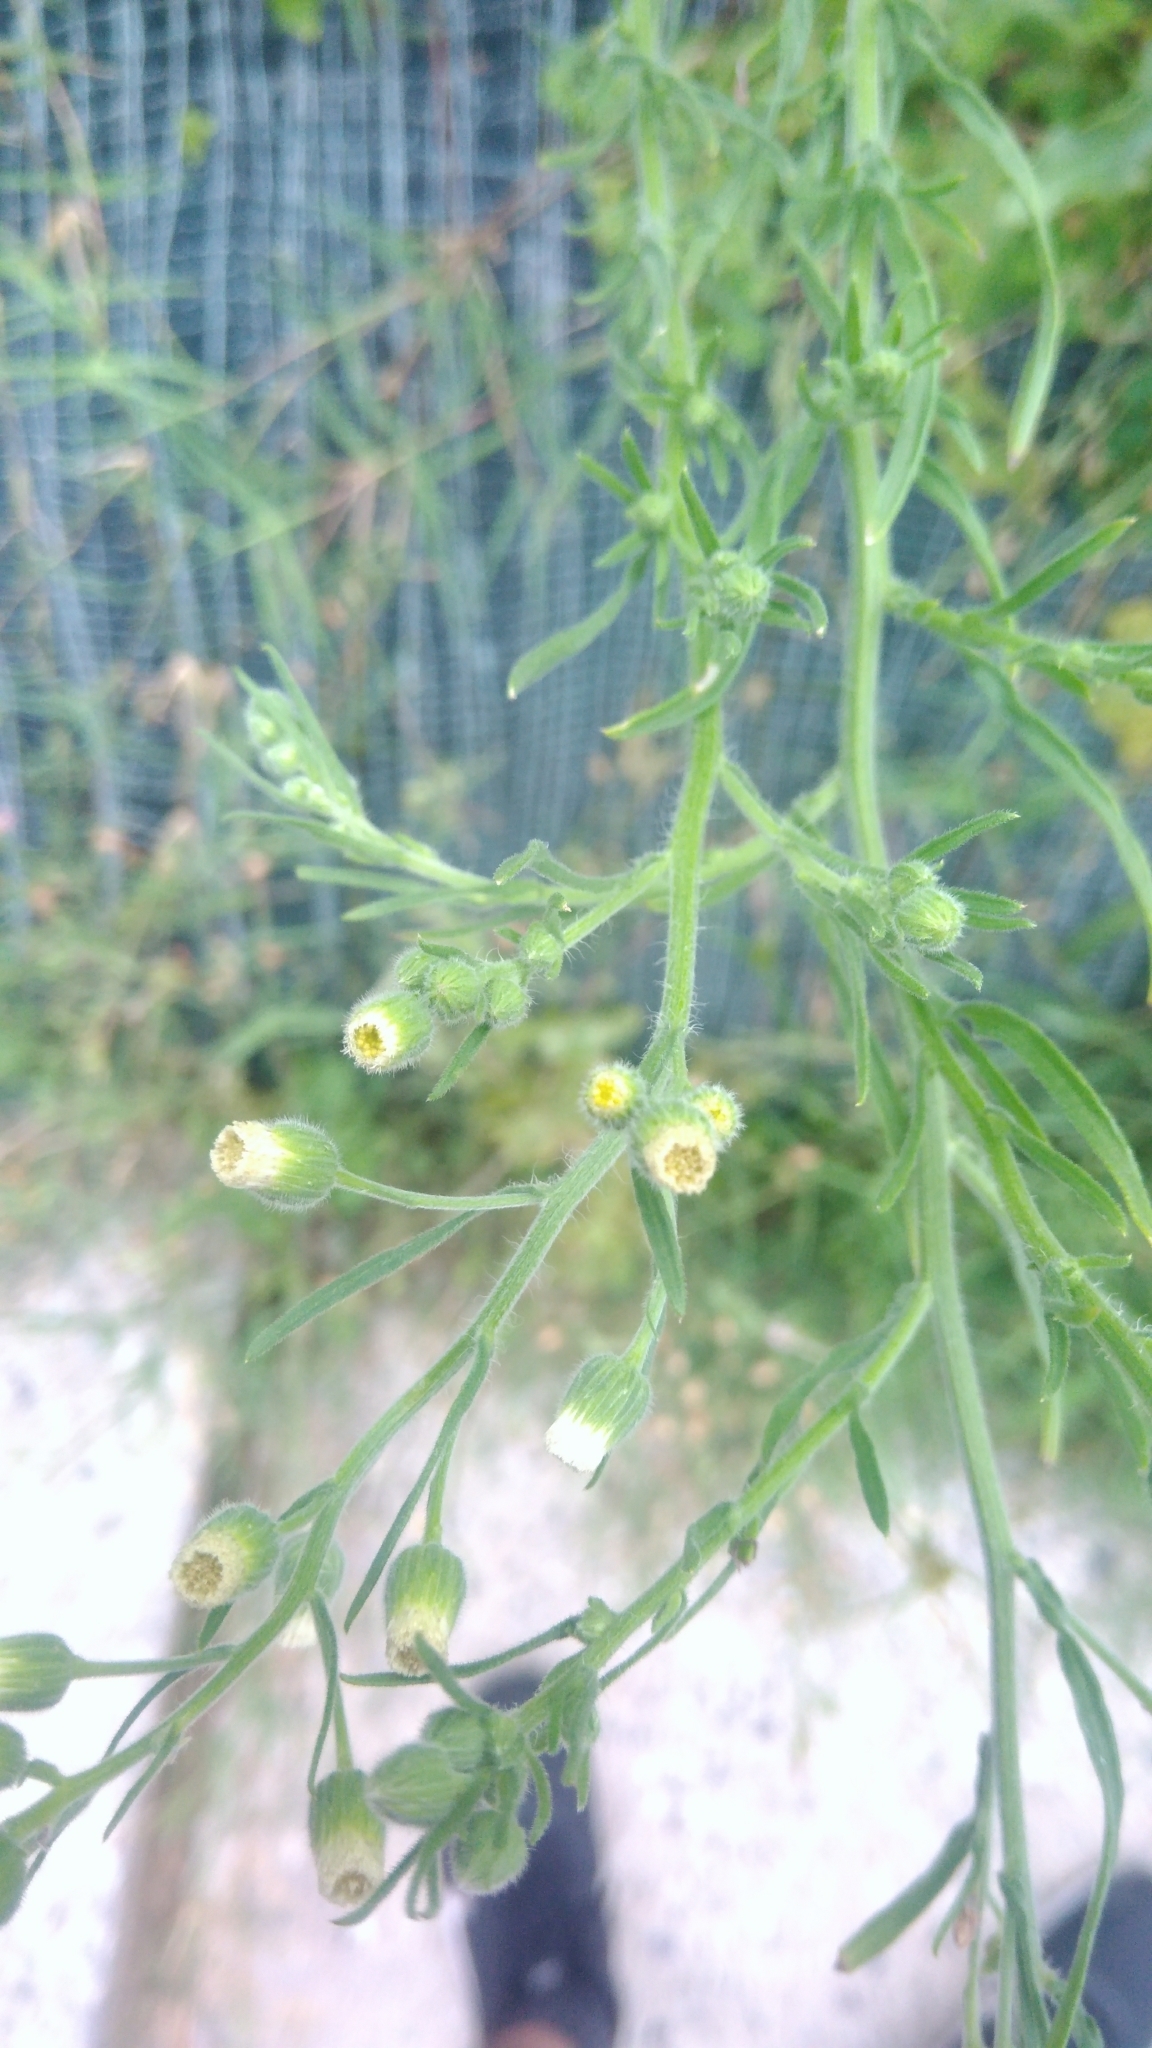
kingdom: Plantae
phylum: Tracheophyta
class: Magnoliopsida
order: Asterales
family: Asteraceae
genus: Erigeron
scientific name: Erigeron bonariensis
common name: Argentine fleabane
